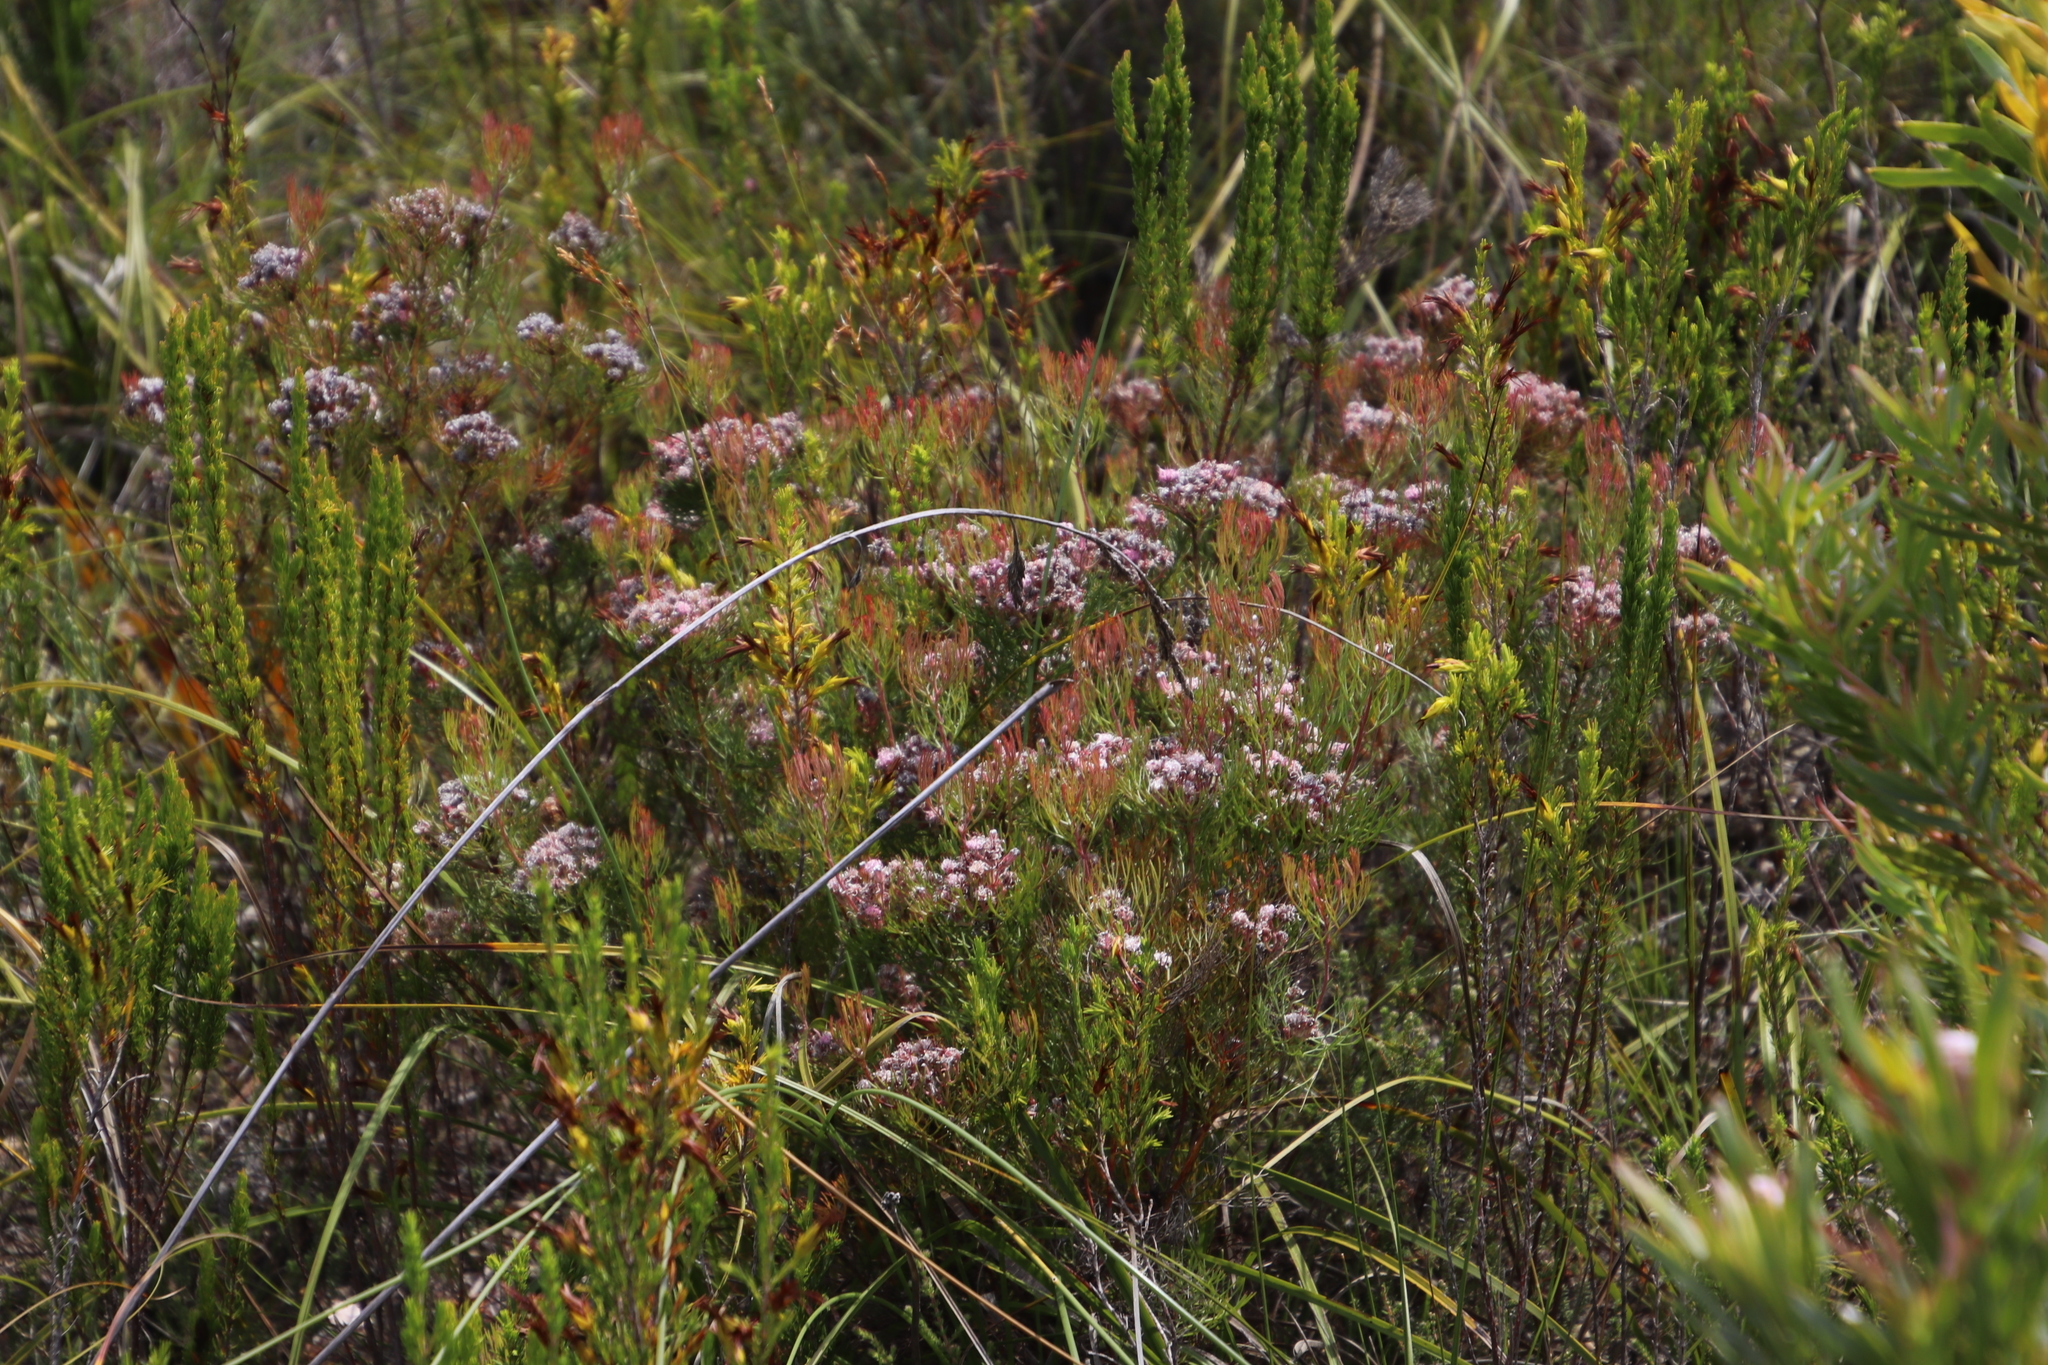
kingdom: Plantae
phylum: Tracheophyta
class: Magnoliopsida
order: Proteales
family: Proteaceae
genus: Serruria
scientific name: Serruria fasciflora
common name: Common pin spiderhead
